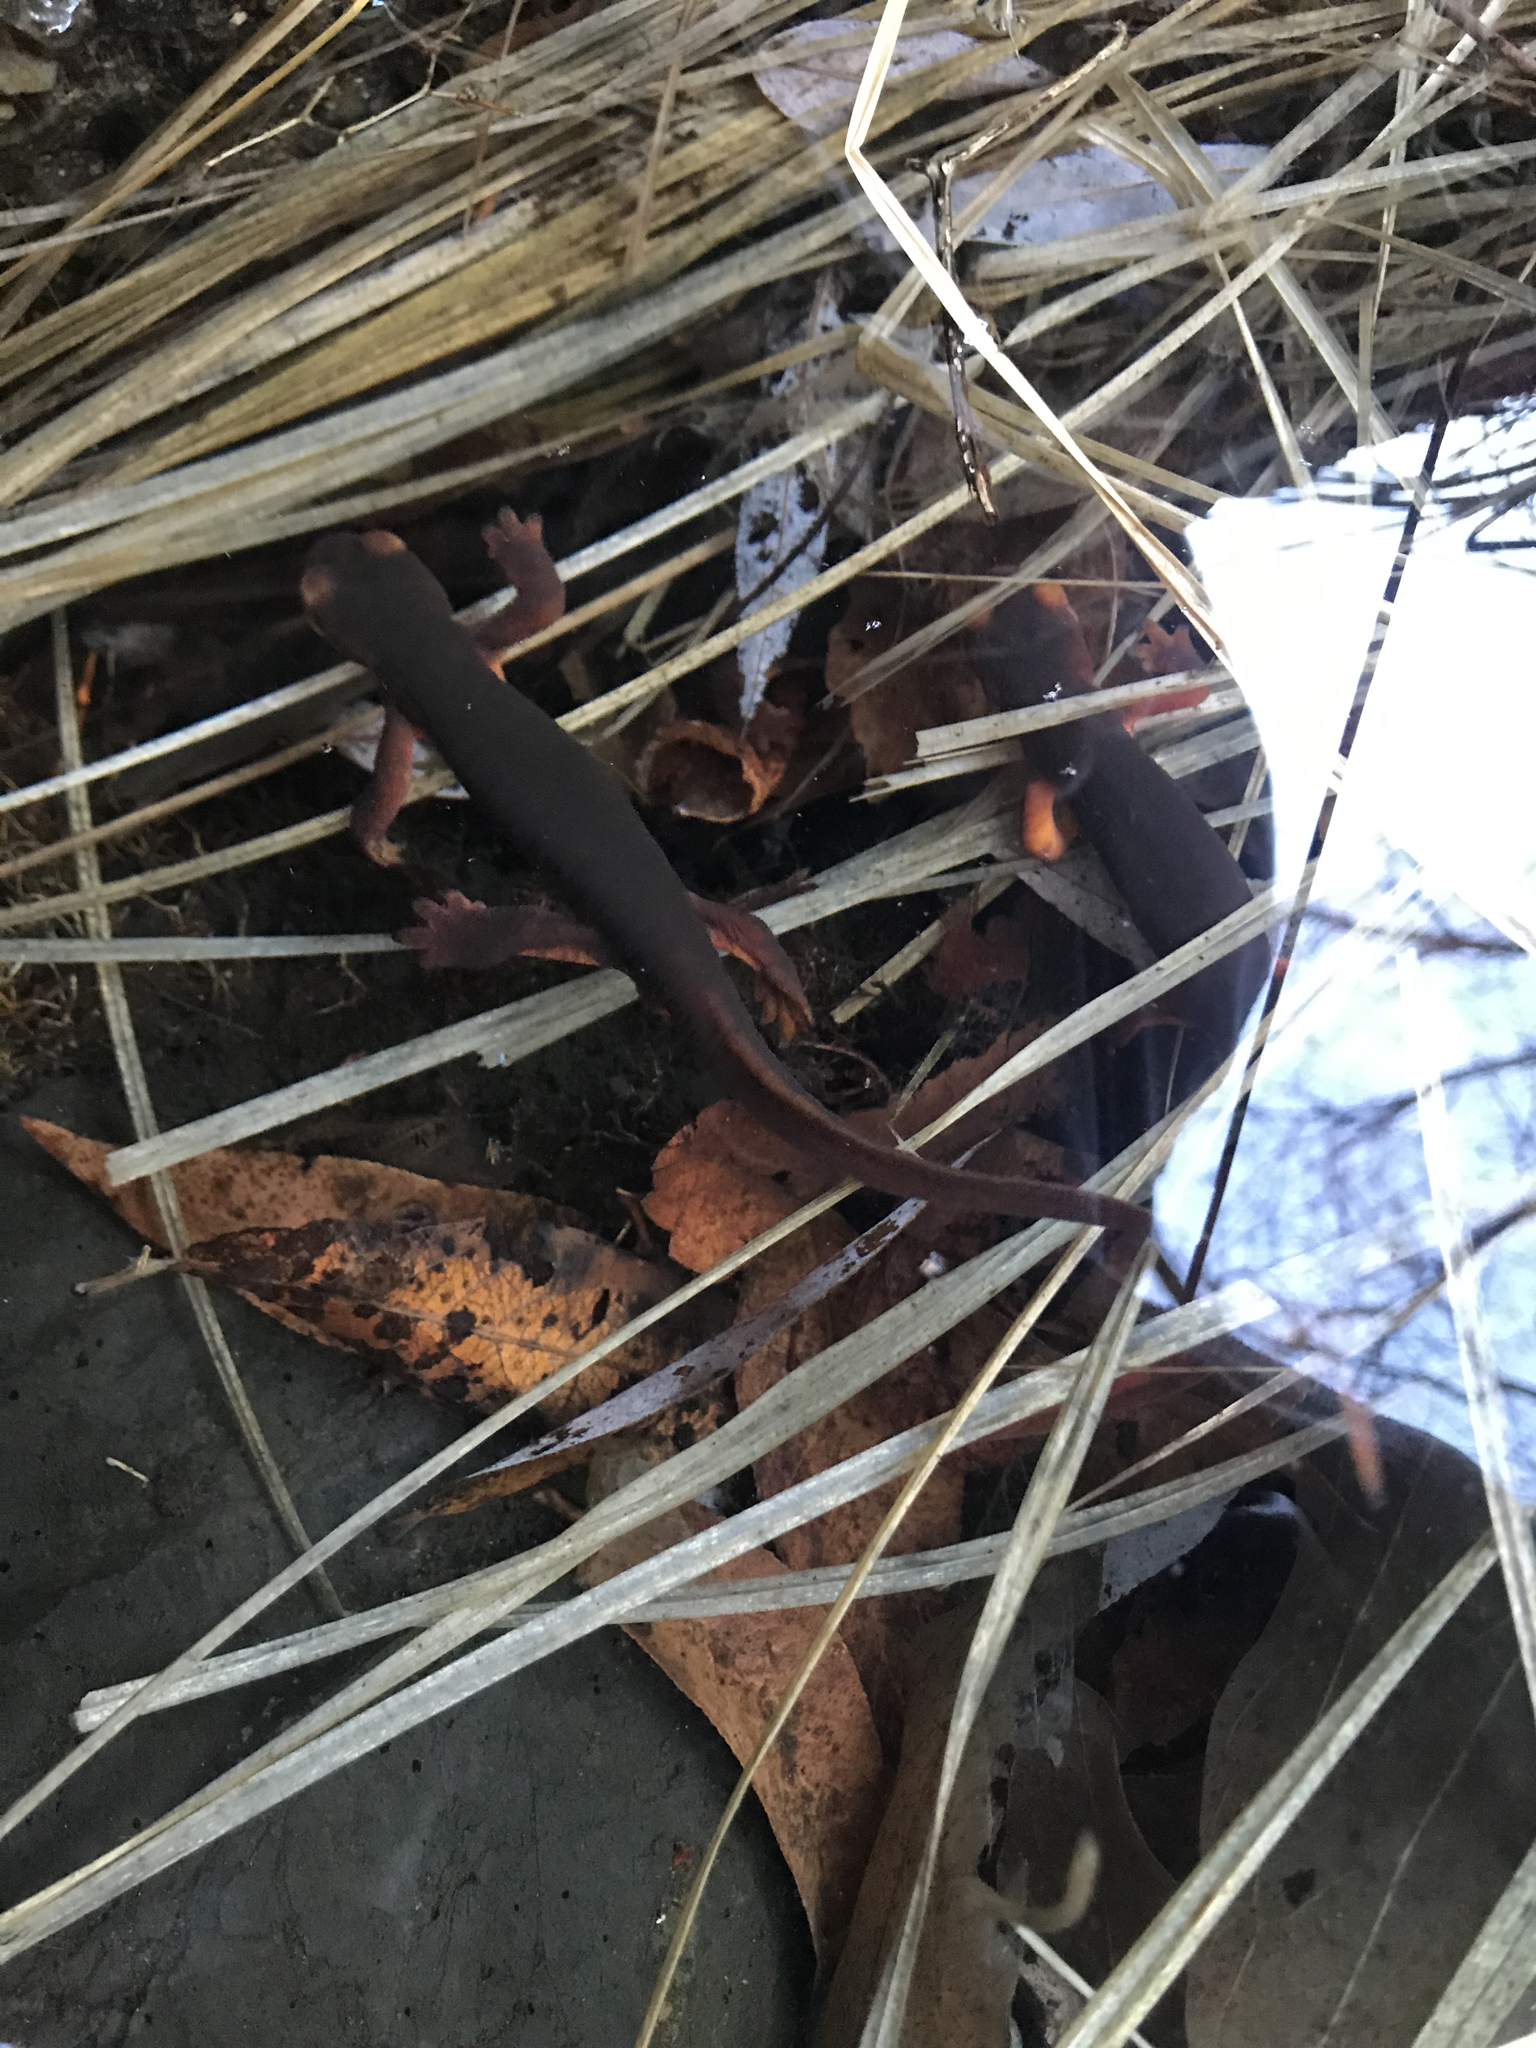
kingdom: Animalia
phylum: Chordata
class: Amphibia
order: Caudata
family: Salamandridae
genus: Taricha
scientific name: Taricha sierrae
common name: Sierra newt
